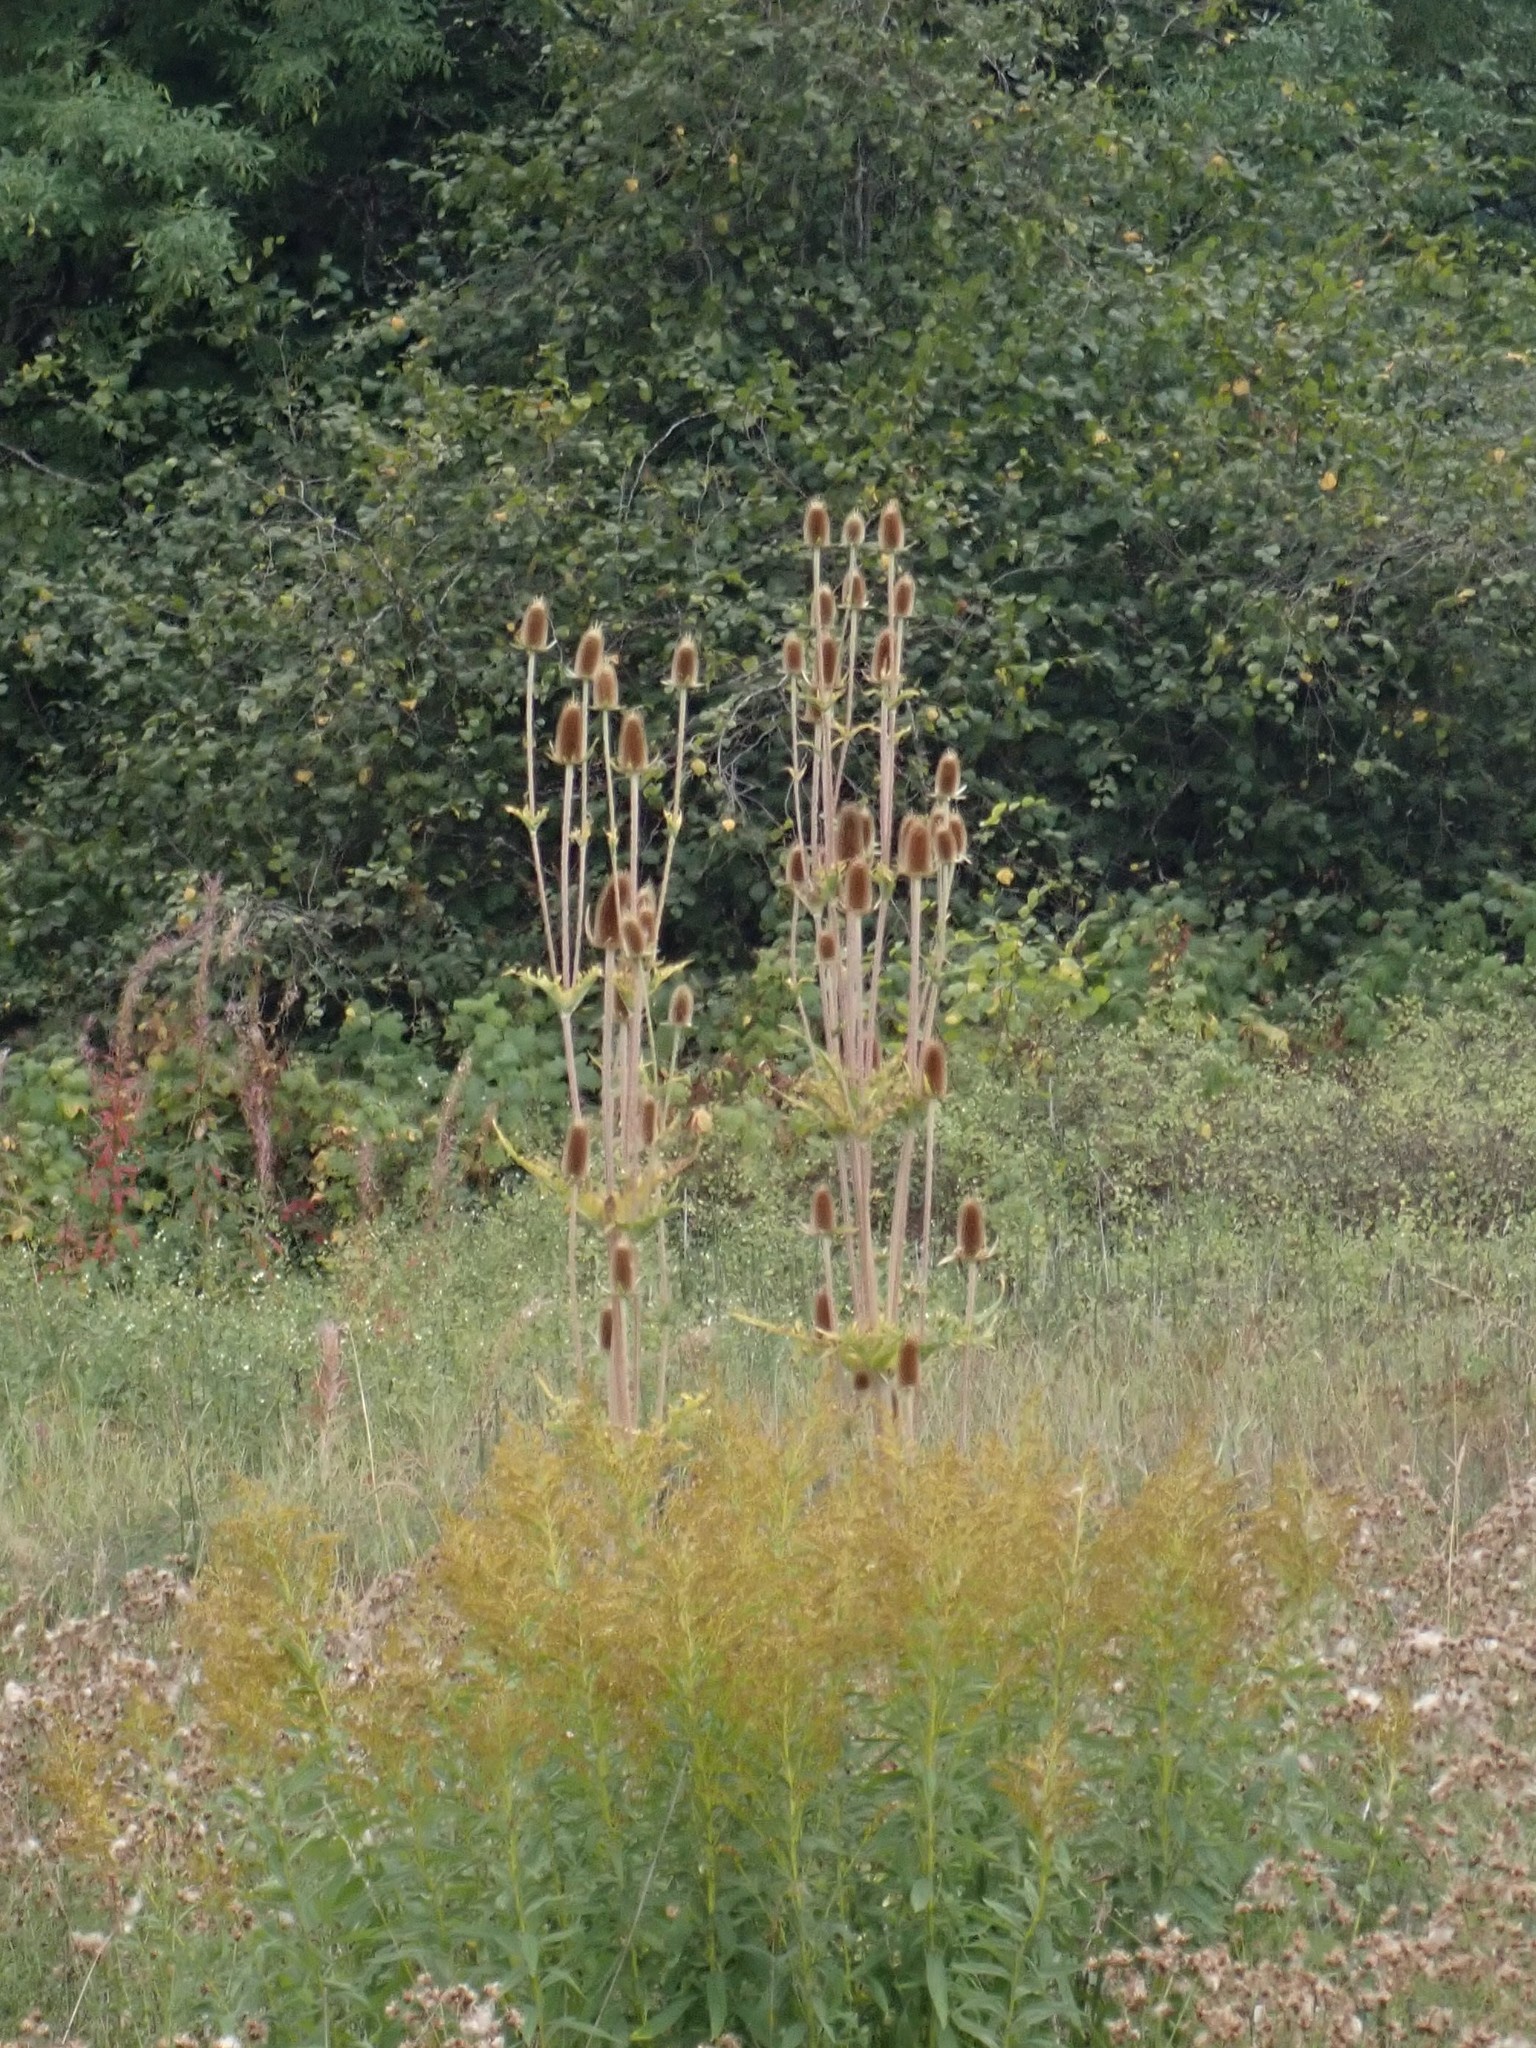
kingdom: Plantae
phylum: Tracheophyta
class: Magnoliopsida
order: Dipsacales
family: Caprifoliaceae
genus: Dipsacus
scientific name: Dipsacus laciniatus
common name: Cut-leaved teasel
